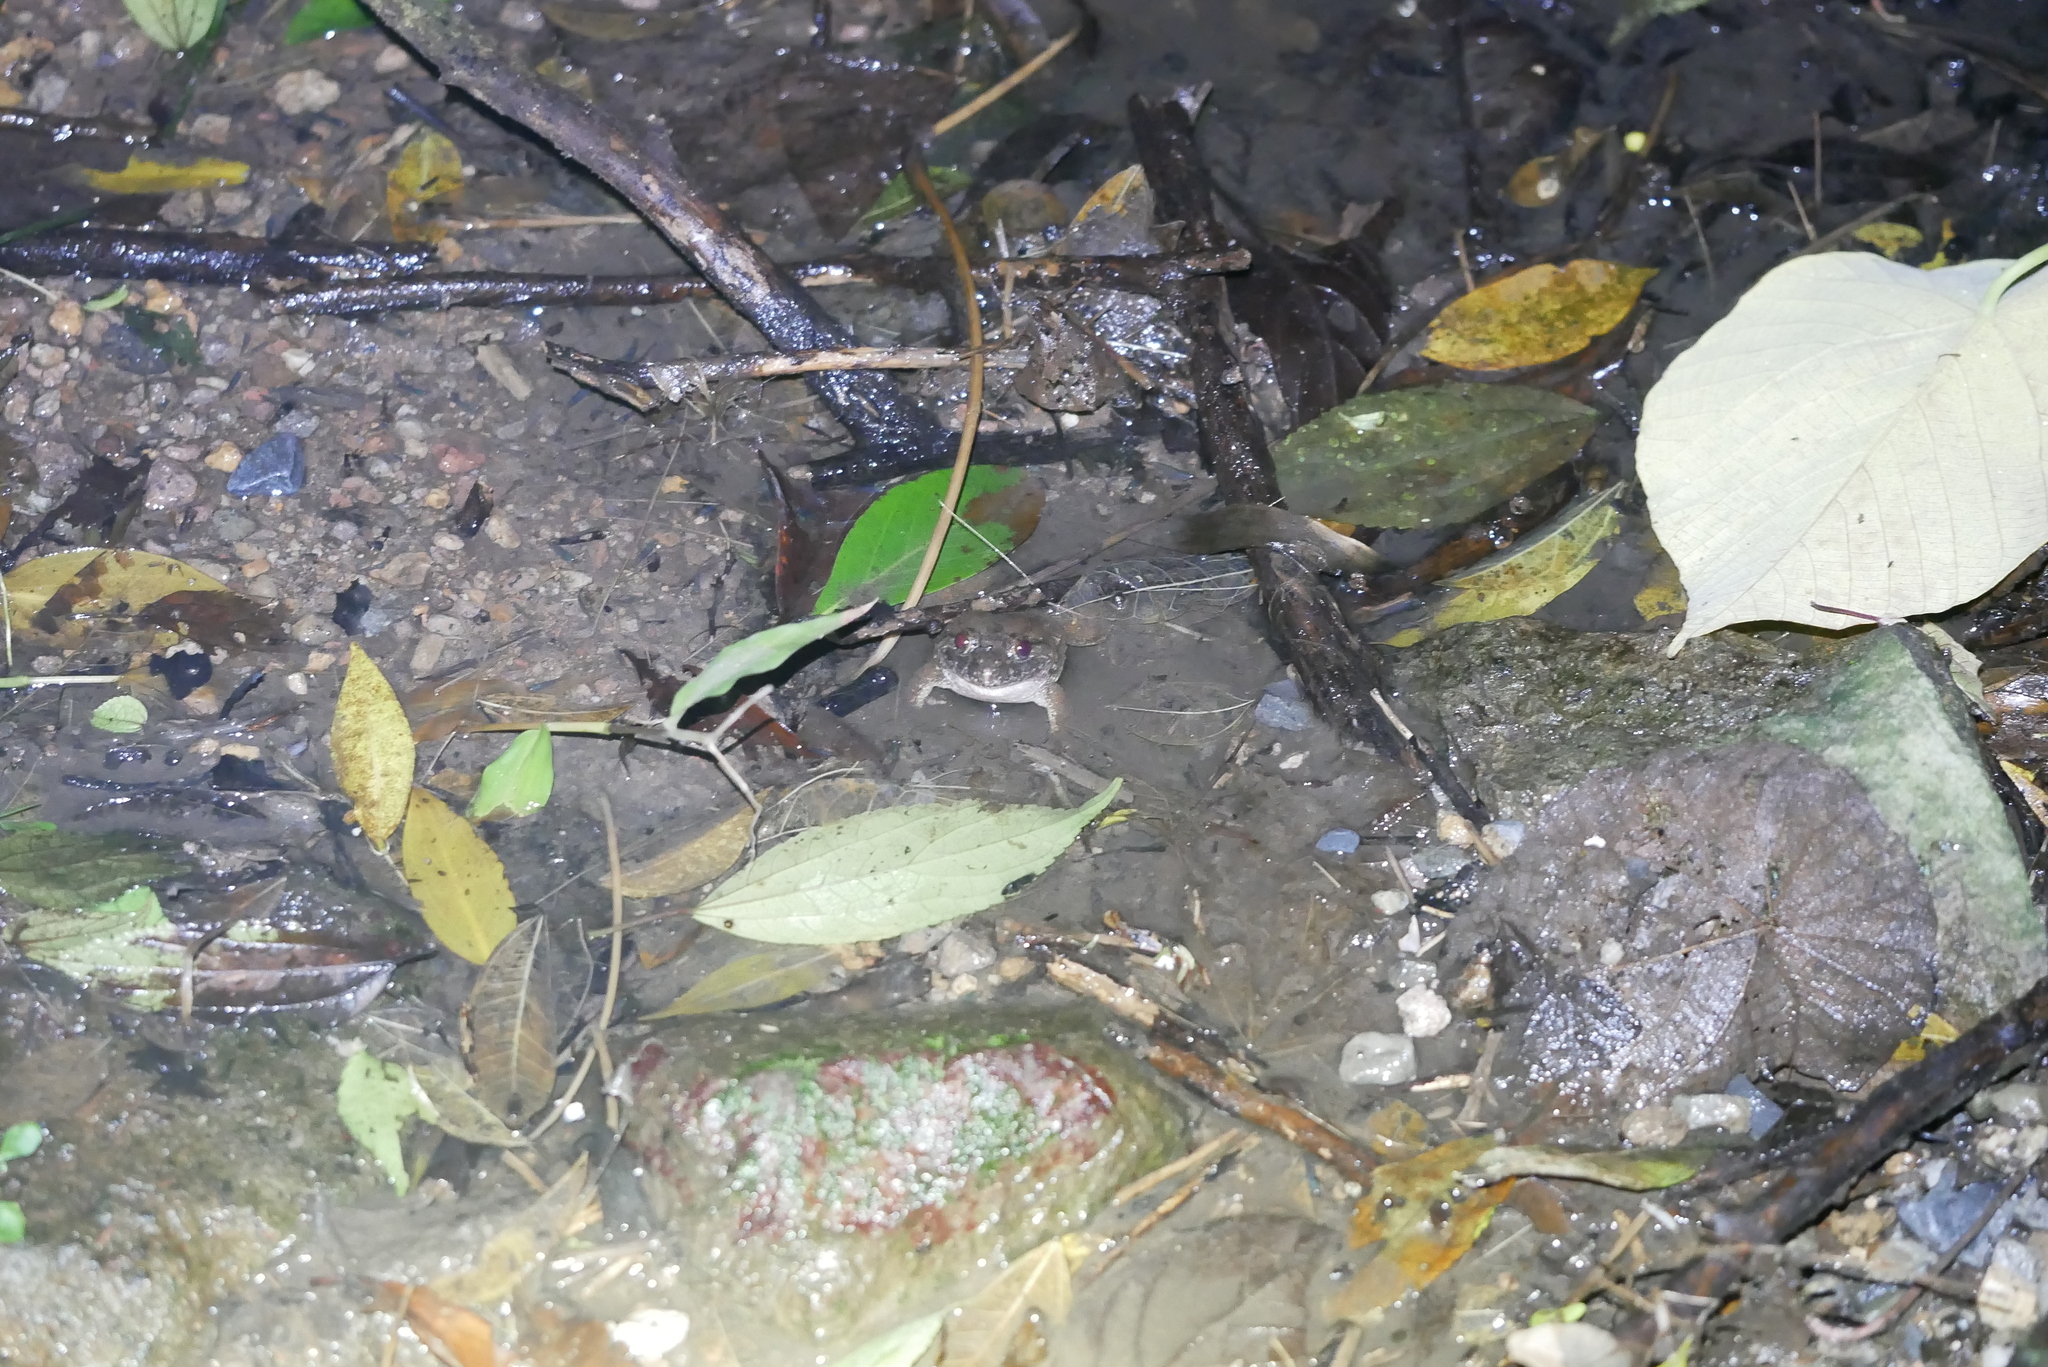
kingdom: Animalia
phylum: Chordata
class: Amphibia
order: Anura
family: Dicroglossidae
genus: Limnonectes
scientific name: Limnonectes fujianensis
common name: Fujian large-headed frog
